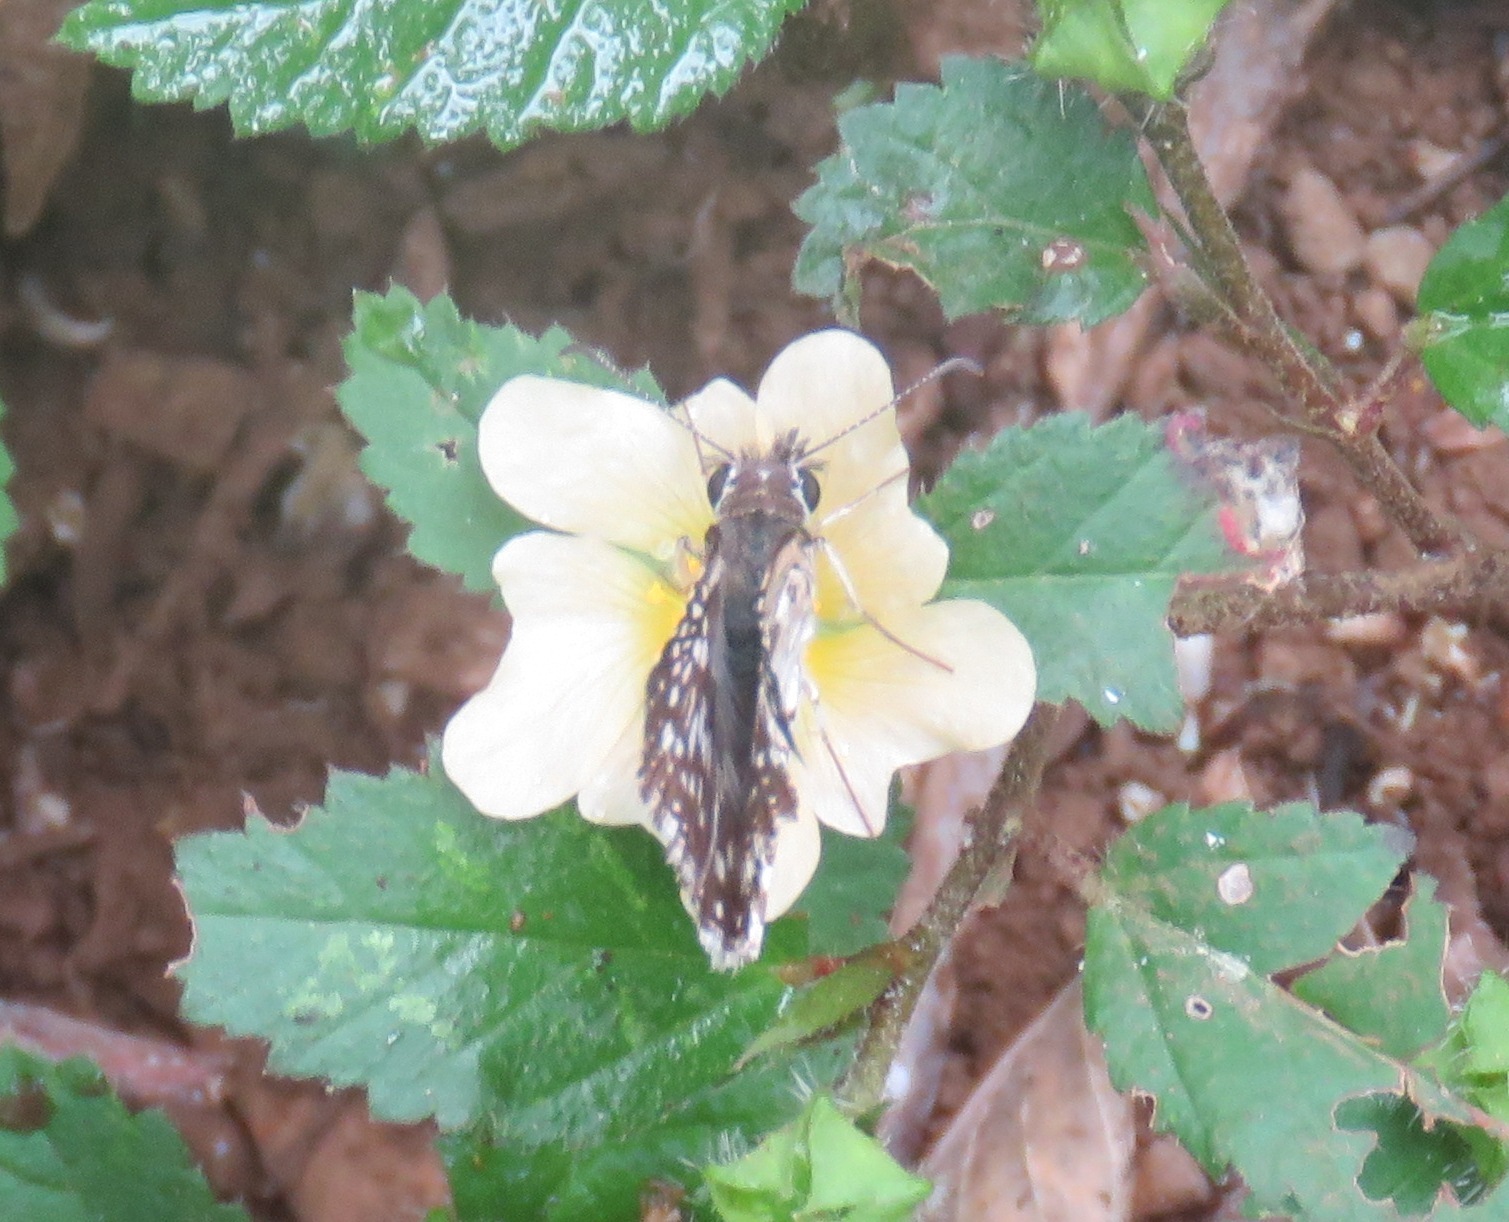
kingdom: Animalia
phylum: Arthropoda
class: Insecta
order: Lepidoptera
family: Hesperiidae
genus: Pyrgus
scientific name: Pyrgus oileus
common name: Tropical checkered-skipper
